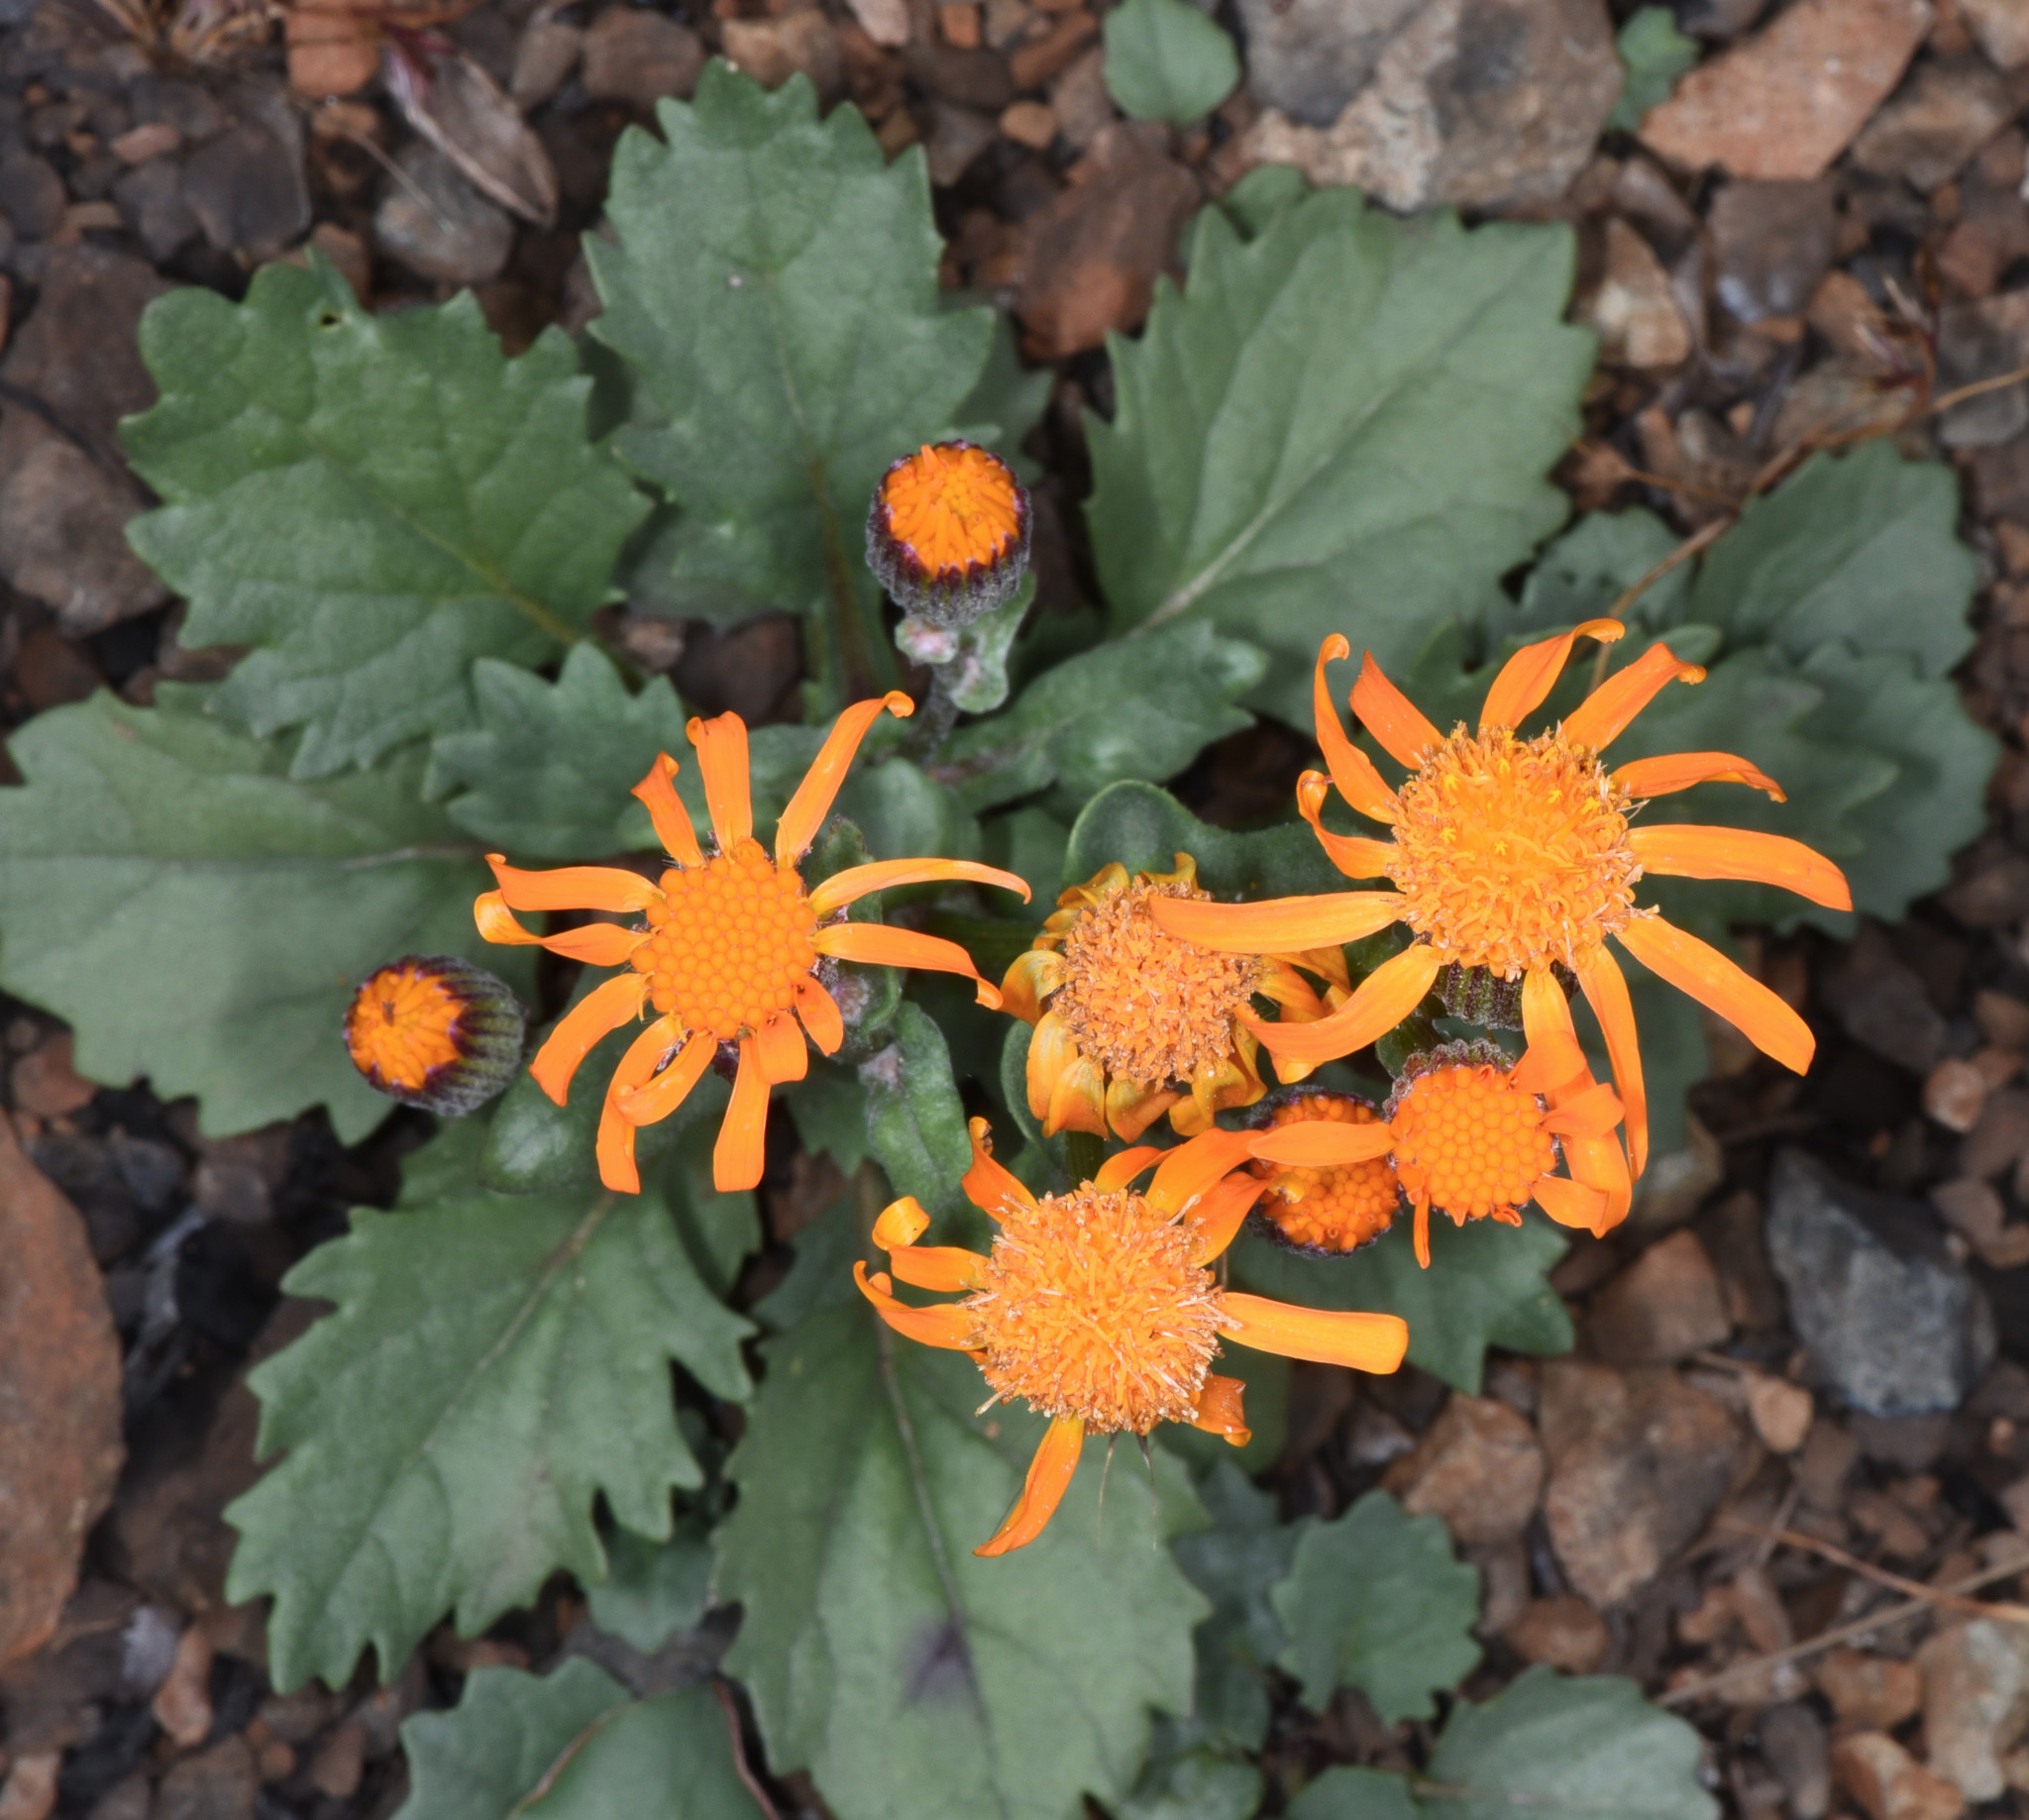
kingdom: Plantae
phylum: Tracheophyta
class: Magnoliopsida
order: Asterales
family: Asteraceae
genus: Packera
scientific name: Packera greenei
